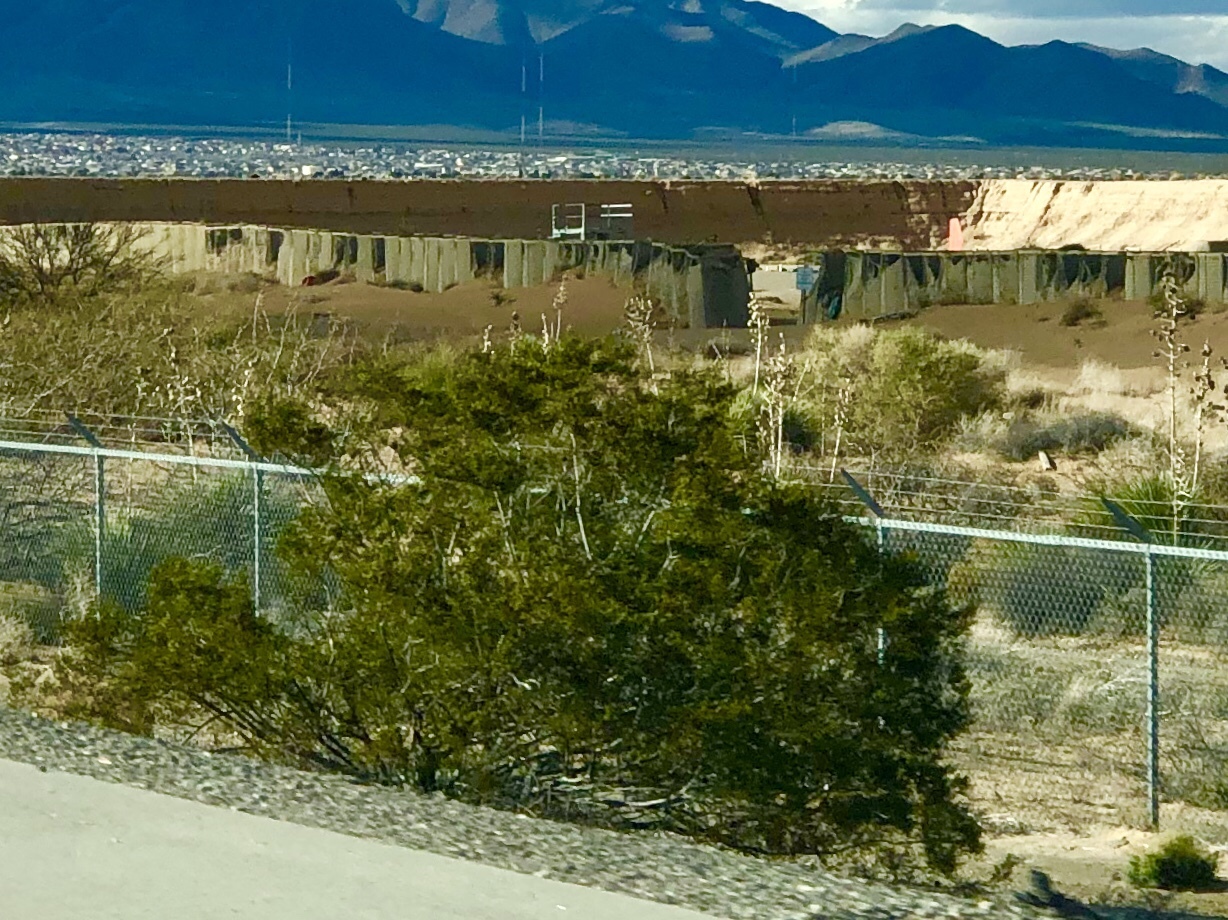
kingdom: Plantae
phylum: Tracheophyta
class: Magnoliopsida
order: Zygophyllales
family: Zygophyllaceae
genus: Larrea
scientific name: Larrea tridentata
